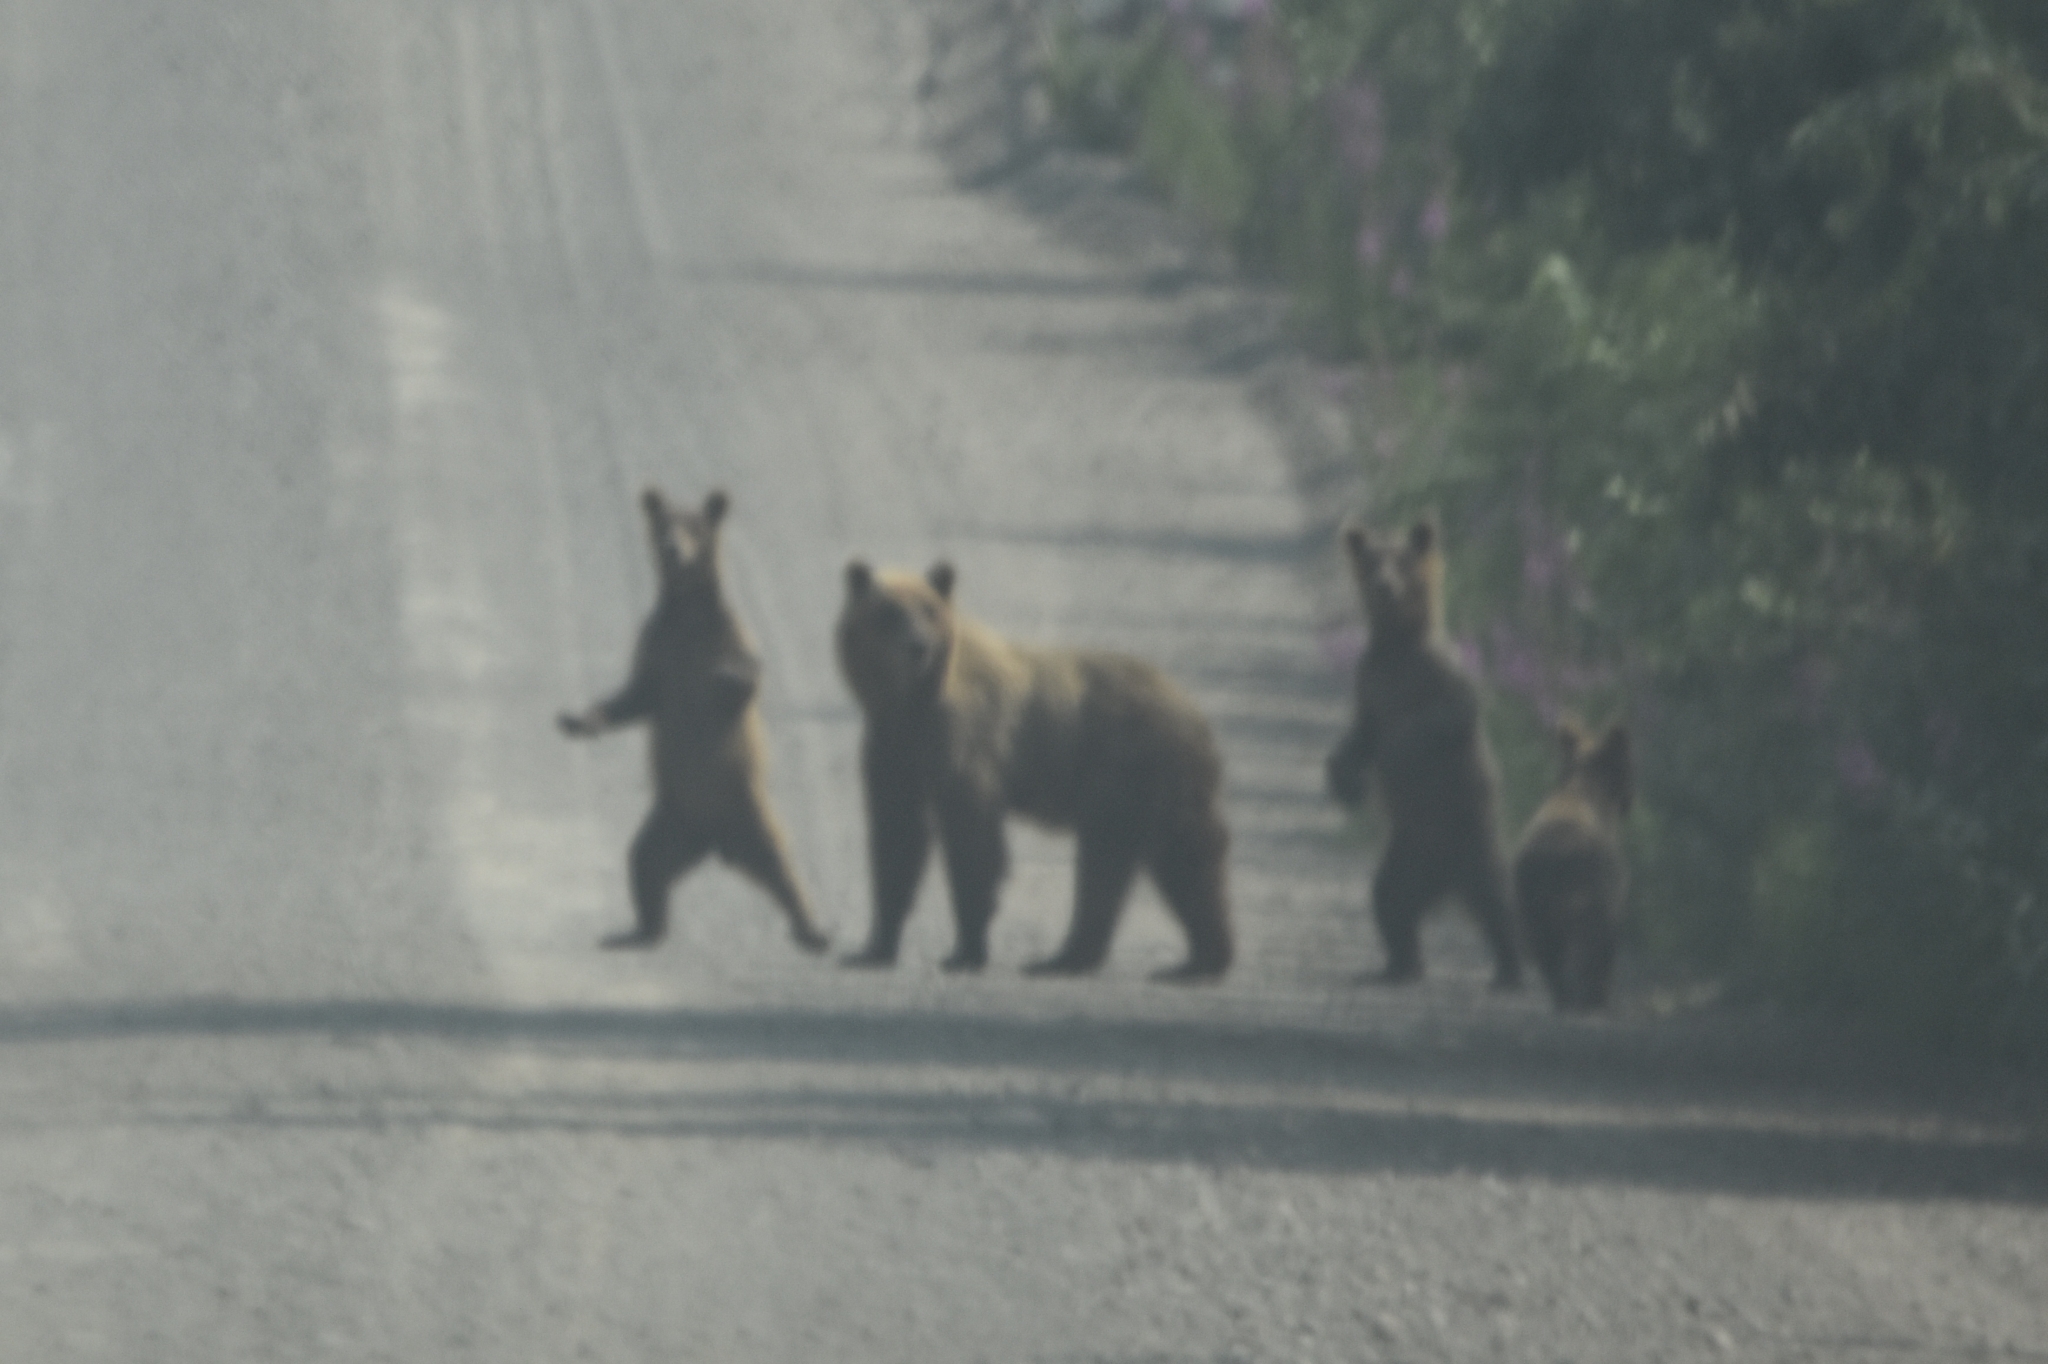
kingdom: Animalia
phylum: Chordata
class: Mammalia
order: Carnivora
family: Ursidae
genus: Ursus
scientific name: Ursus arctos
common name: Brown bear
